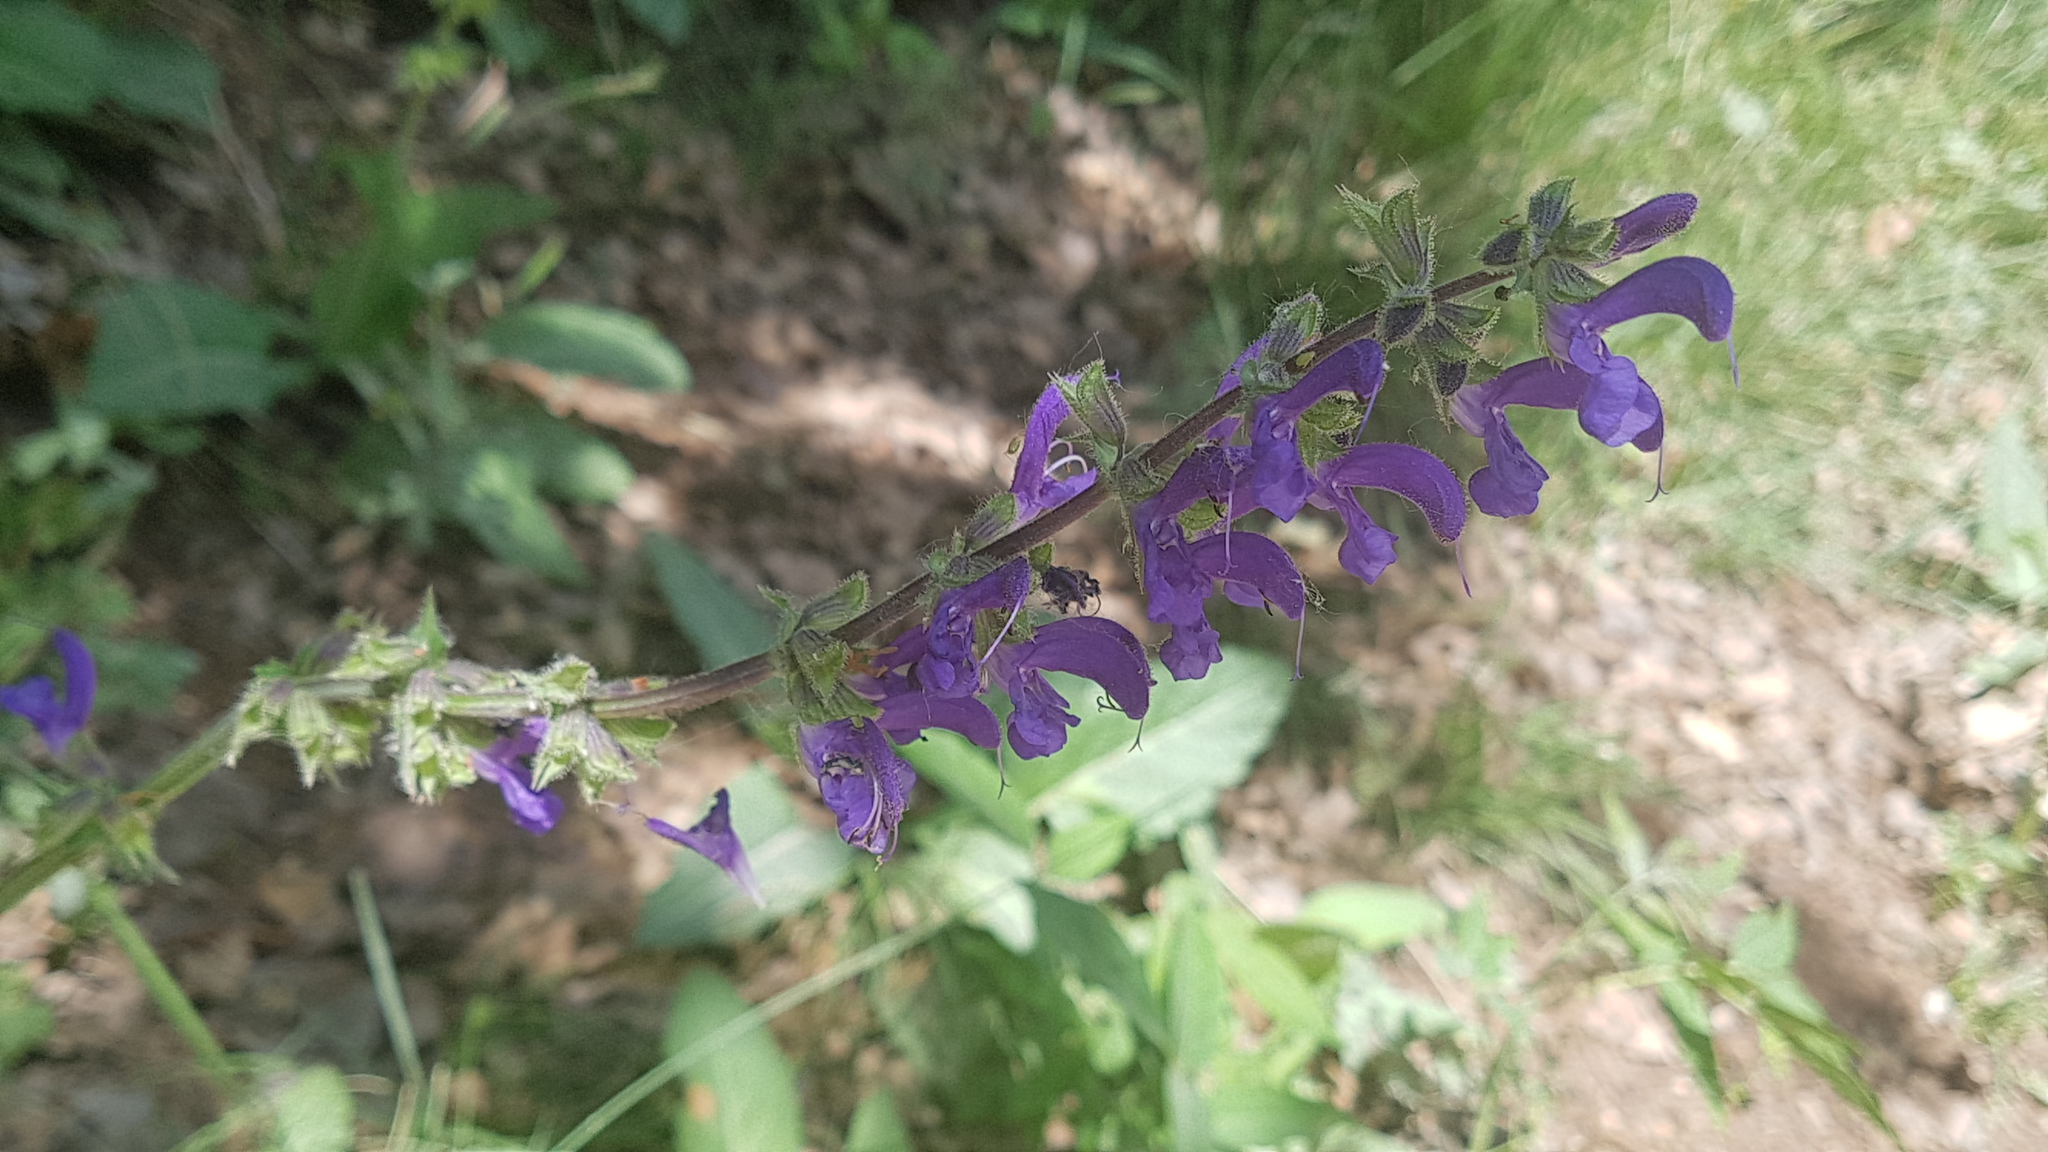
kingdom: Plantae
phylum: Tracheophyta
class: Magnoliopsida
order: Lamiales
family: Lamiaceae
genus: Salvia
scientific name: Salvia pratensis
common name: Meadow sage
